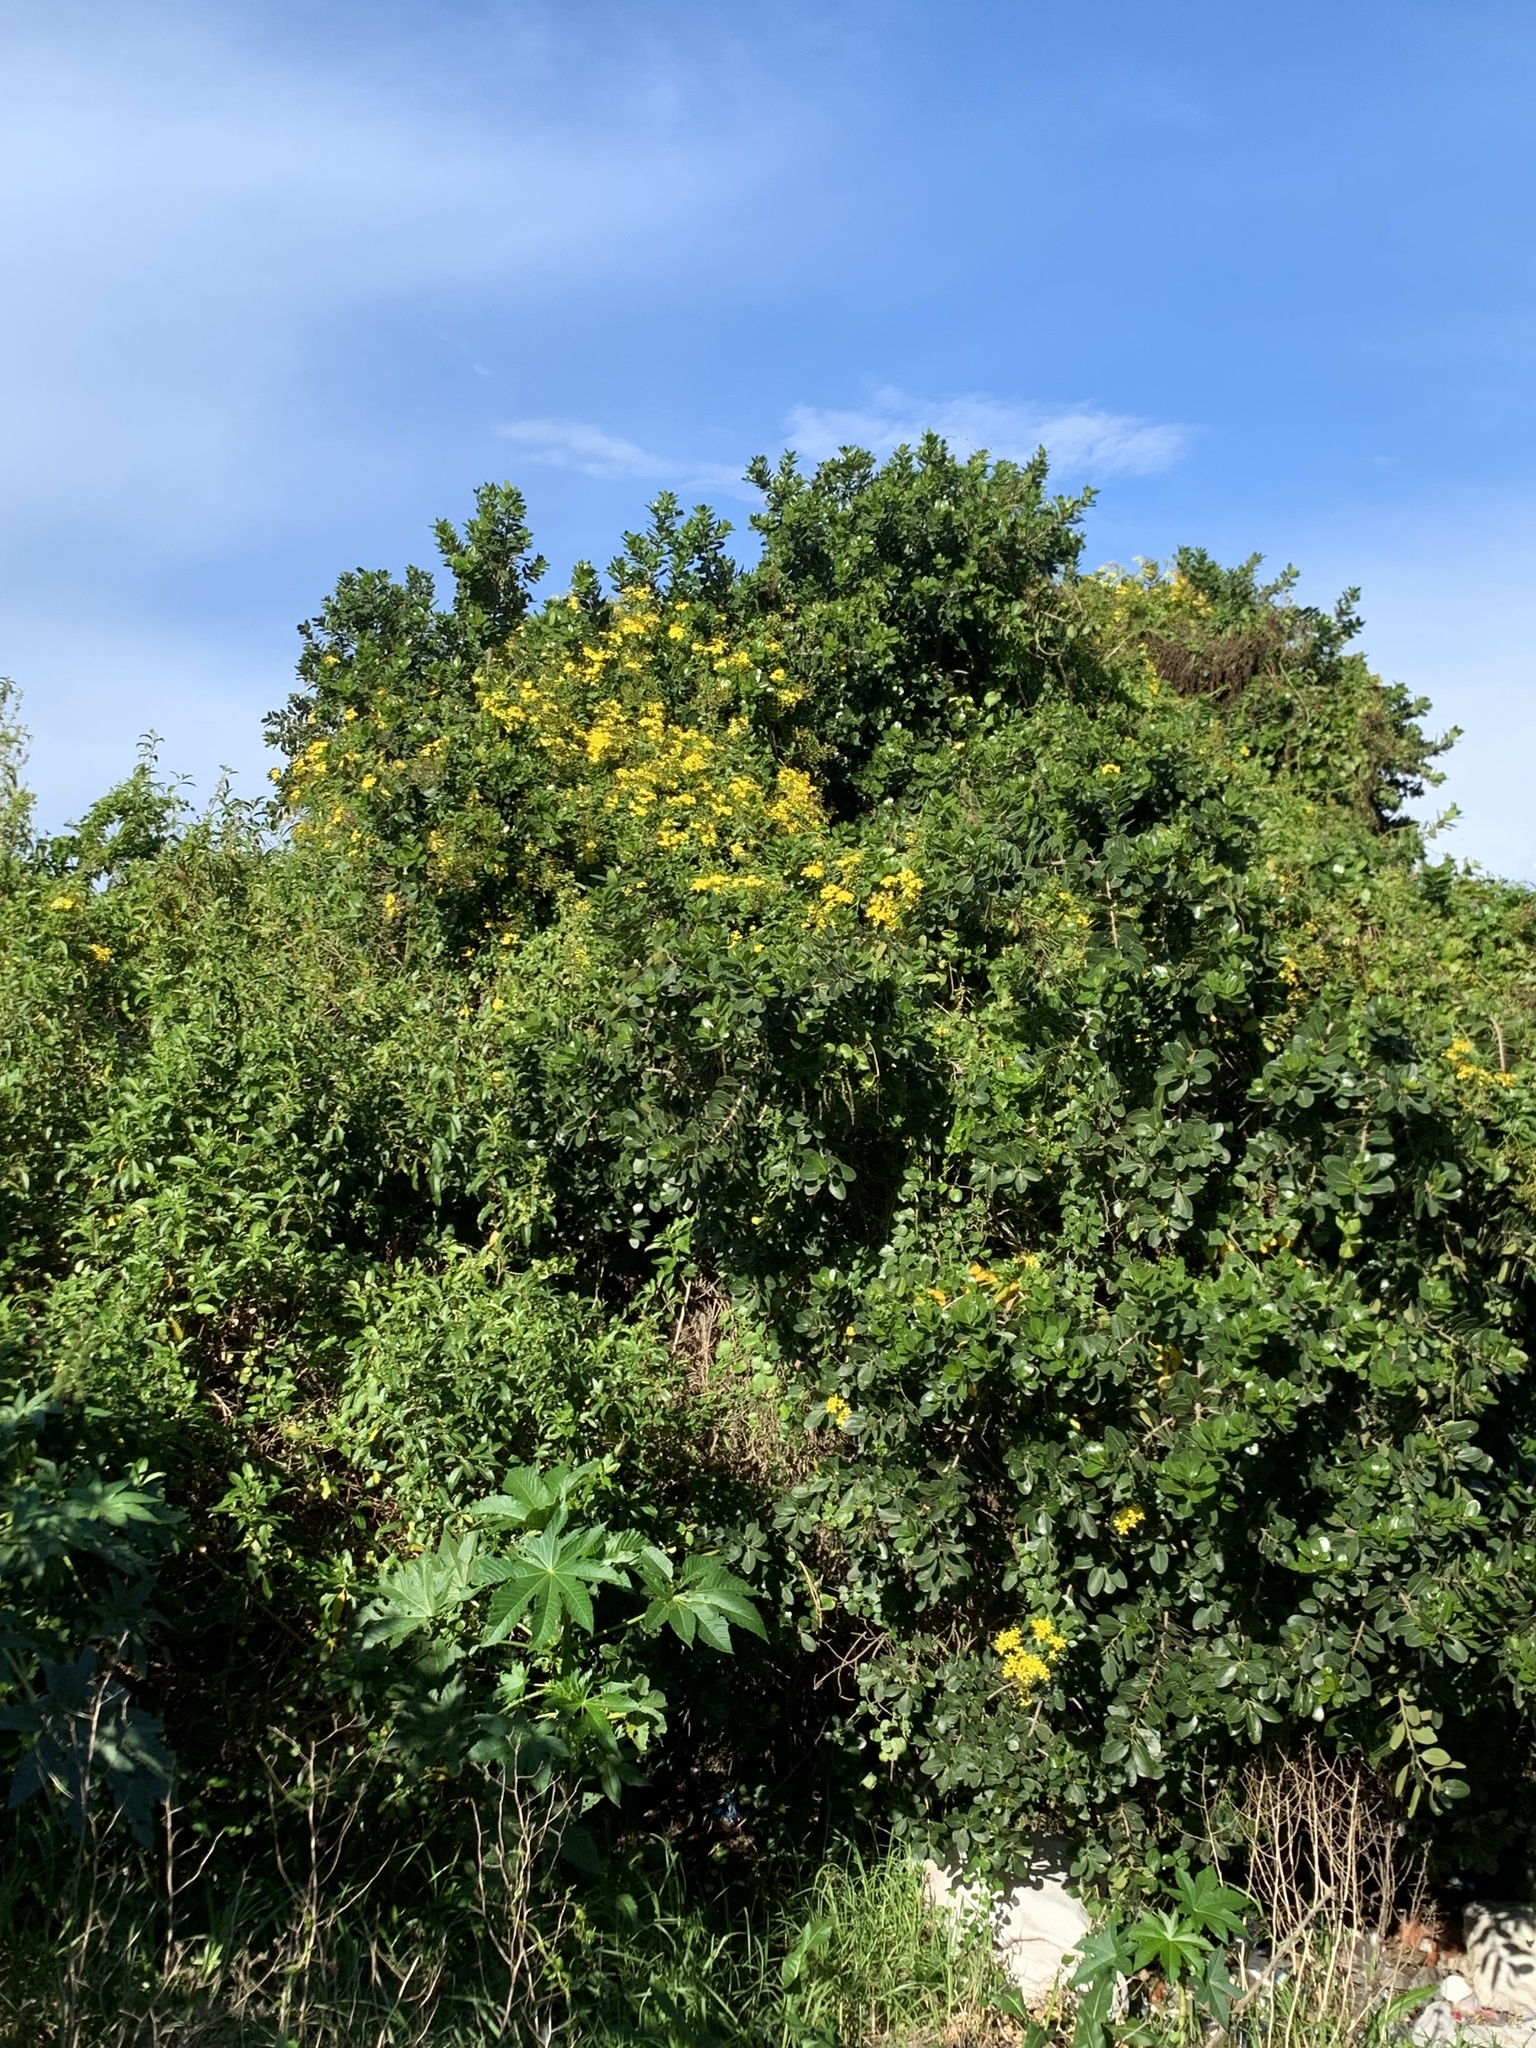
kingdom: Plantae
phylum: Tracheophyta
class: Magnoliopsida
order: Asterales
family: Asteraceae
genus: Senecio
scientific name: Senecio angulatus
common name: Climbing groundsel
